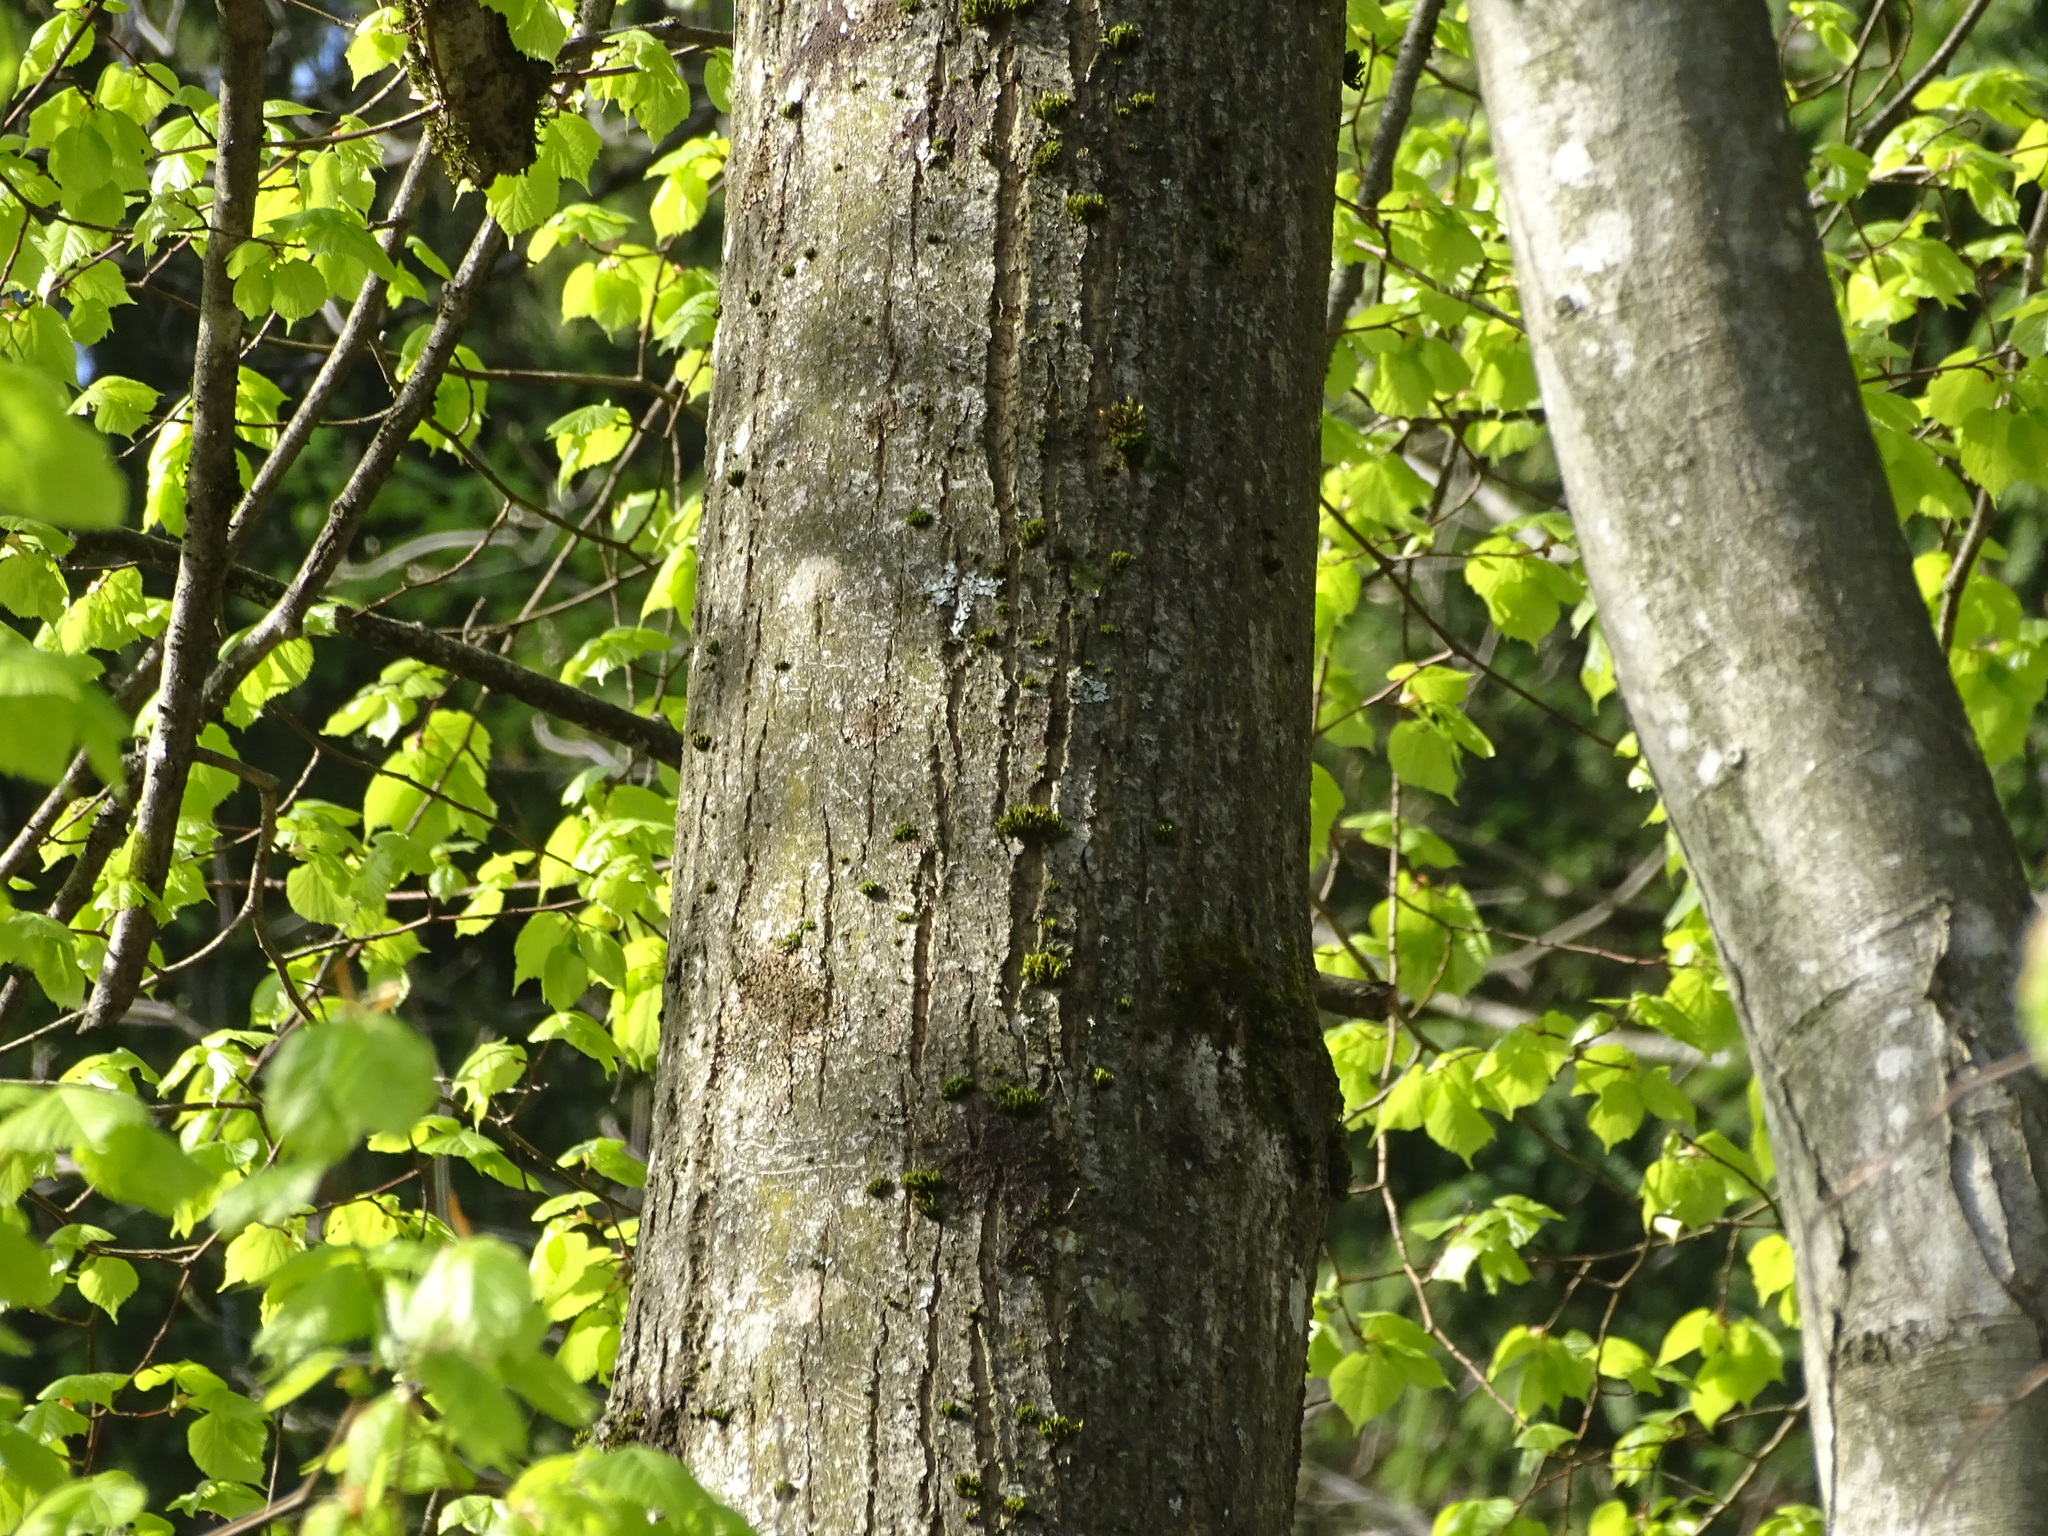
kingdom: Plantae
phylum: Tracheophyta
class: Magnoliopsida
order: Malvales
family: Malvaceae
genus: Tilia
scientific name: Tilia platyphyllos
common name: Large-leaved lime
